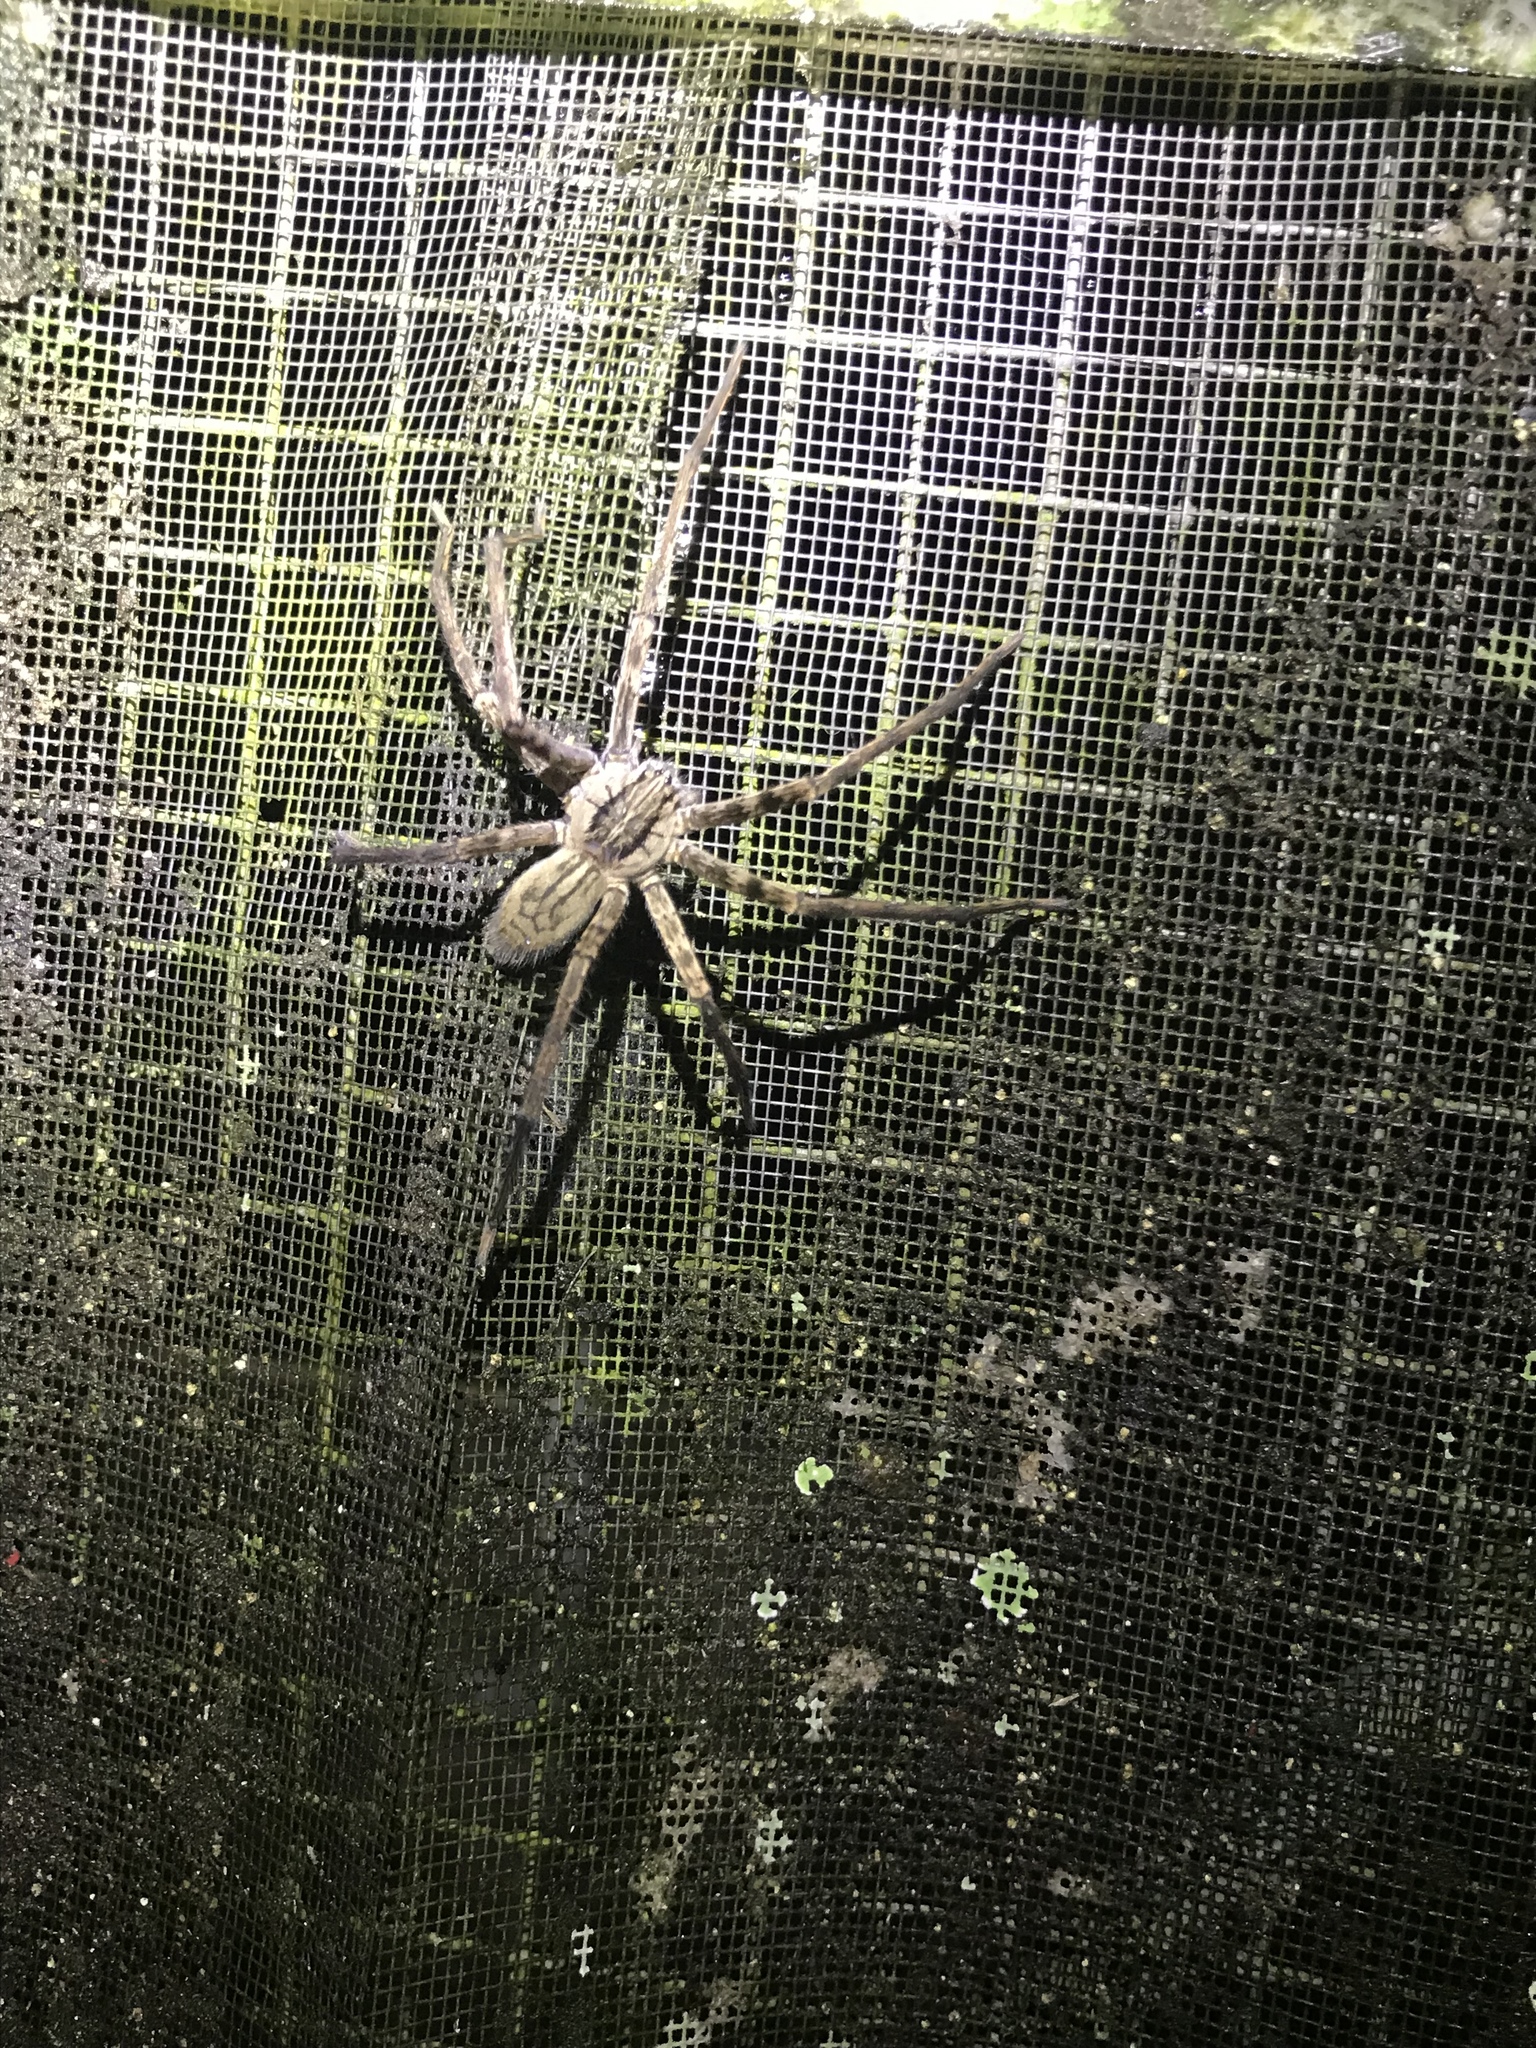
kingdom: Animalia
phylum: Arthropoda
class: Arachnida
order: Araneae
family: Trechaleidae
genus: Cupiennius
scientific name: Cupiennius coccineus
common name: Wandering spiders
